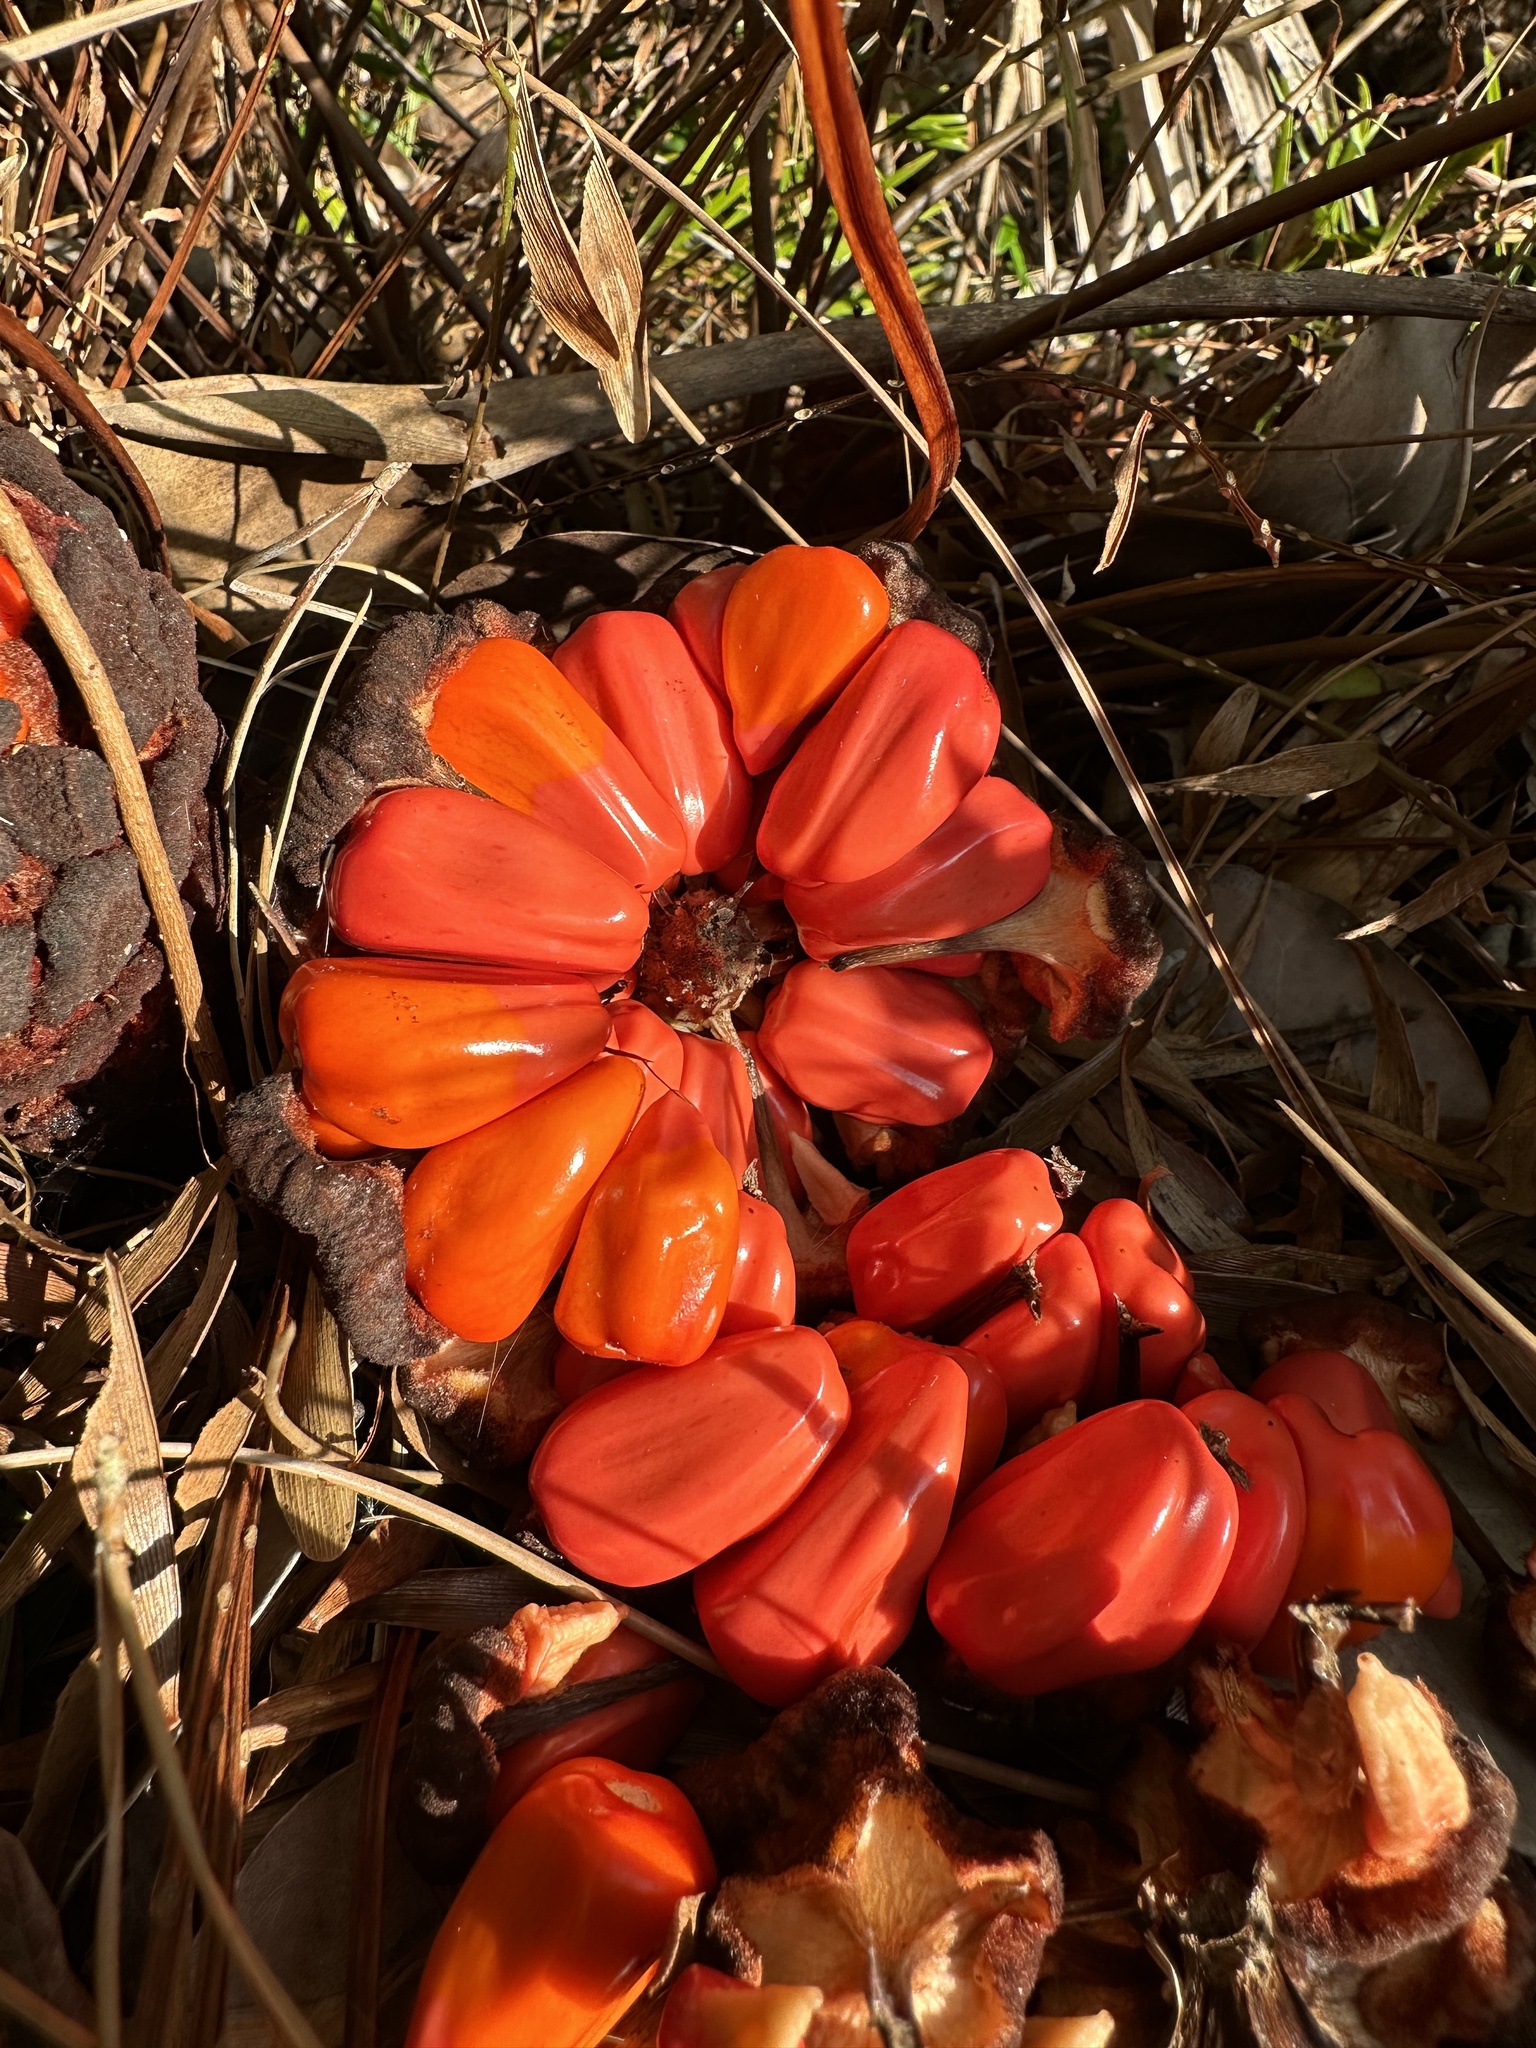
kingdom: Plantae
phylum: Tracheophyta
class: Cycadopsida
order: Cycadales
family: Zamiaceae
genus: Zamia
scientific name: Zamia integrifolia
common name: Florida arrowroot
